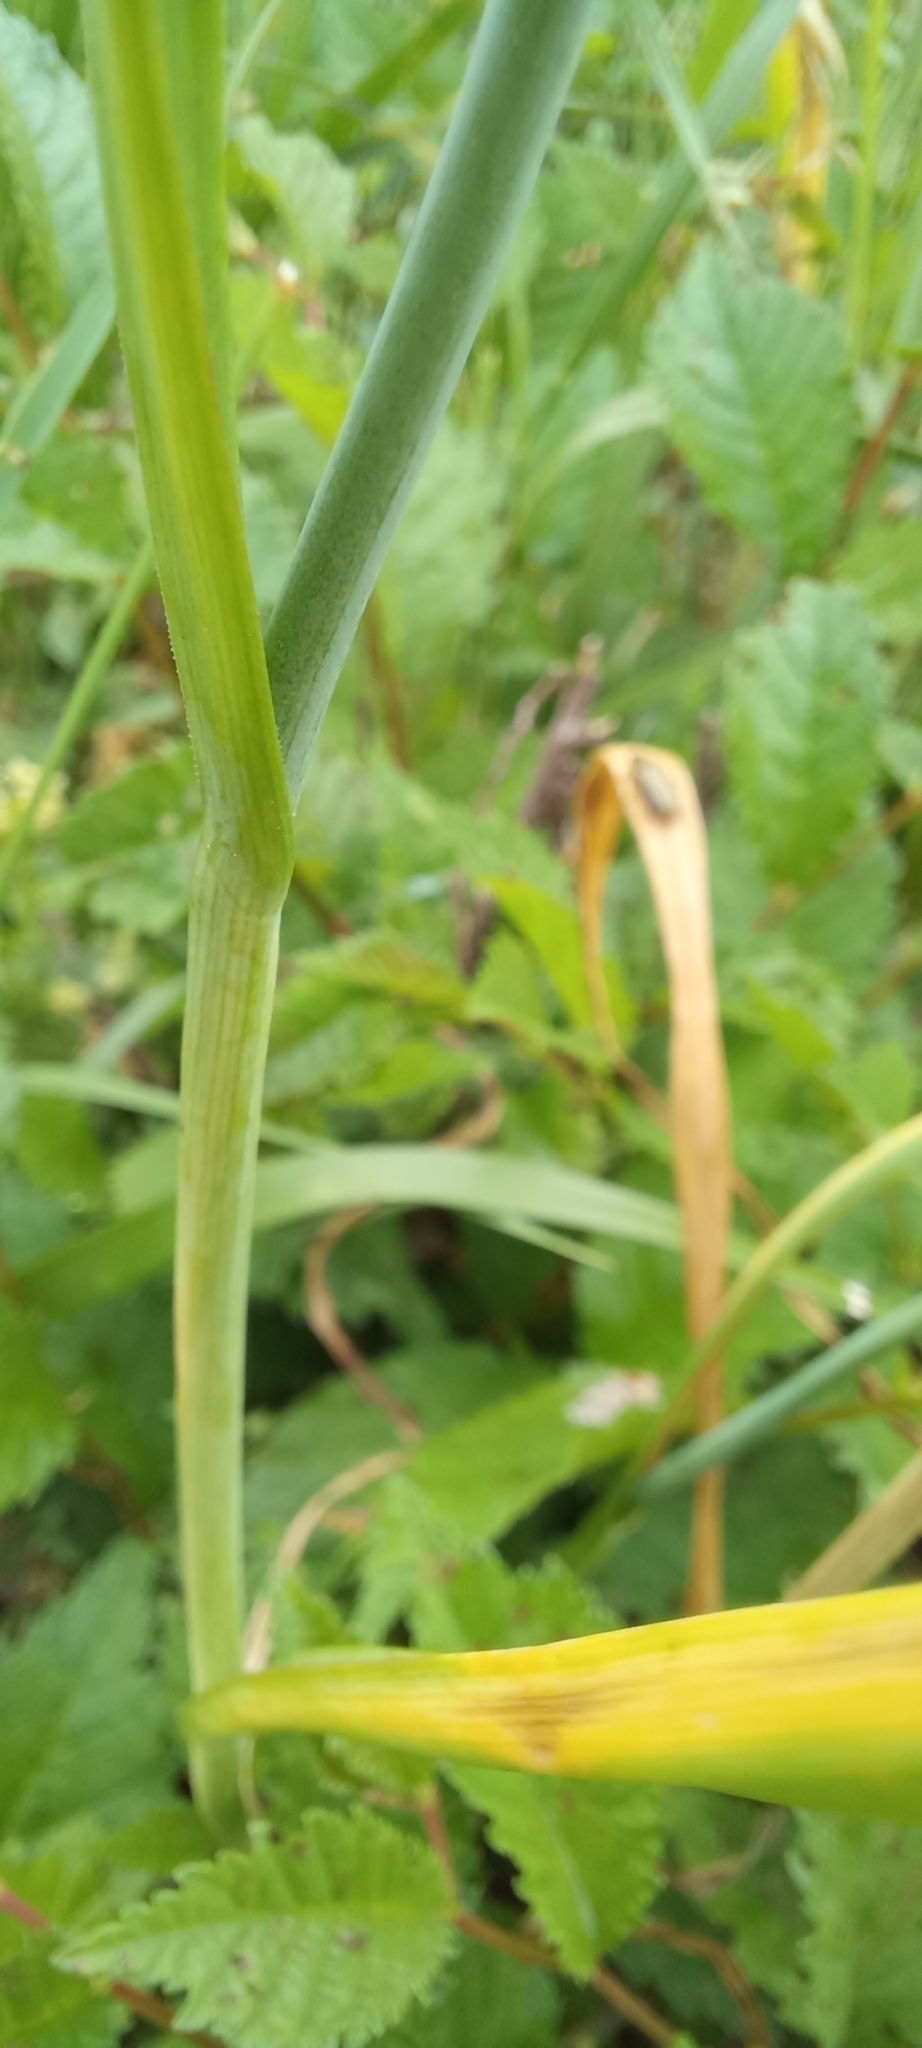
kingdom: Plantae
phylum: Tracheophyta
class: Liliopsida
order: Asparagales
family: Amaryllidaceae
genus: Allium
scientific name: Allium rotundum
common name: Sand leek
